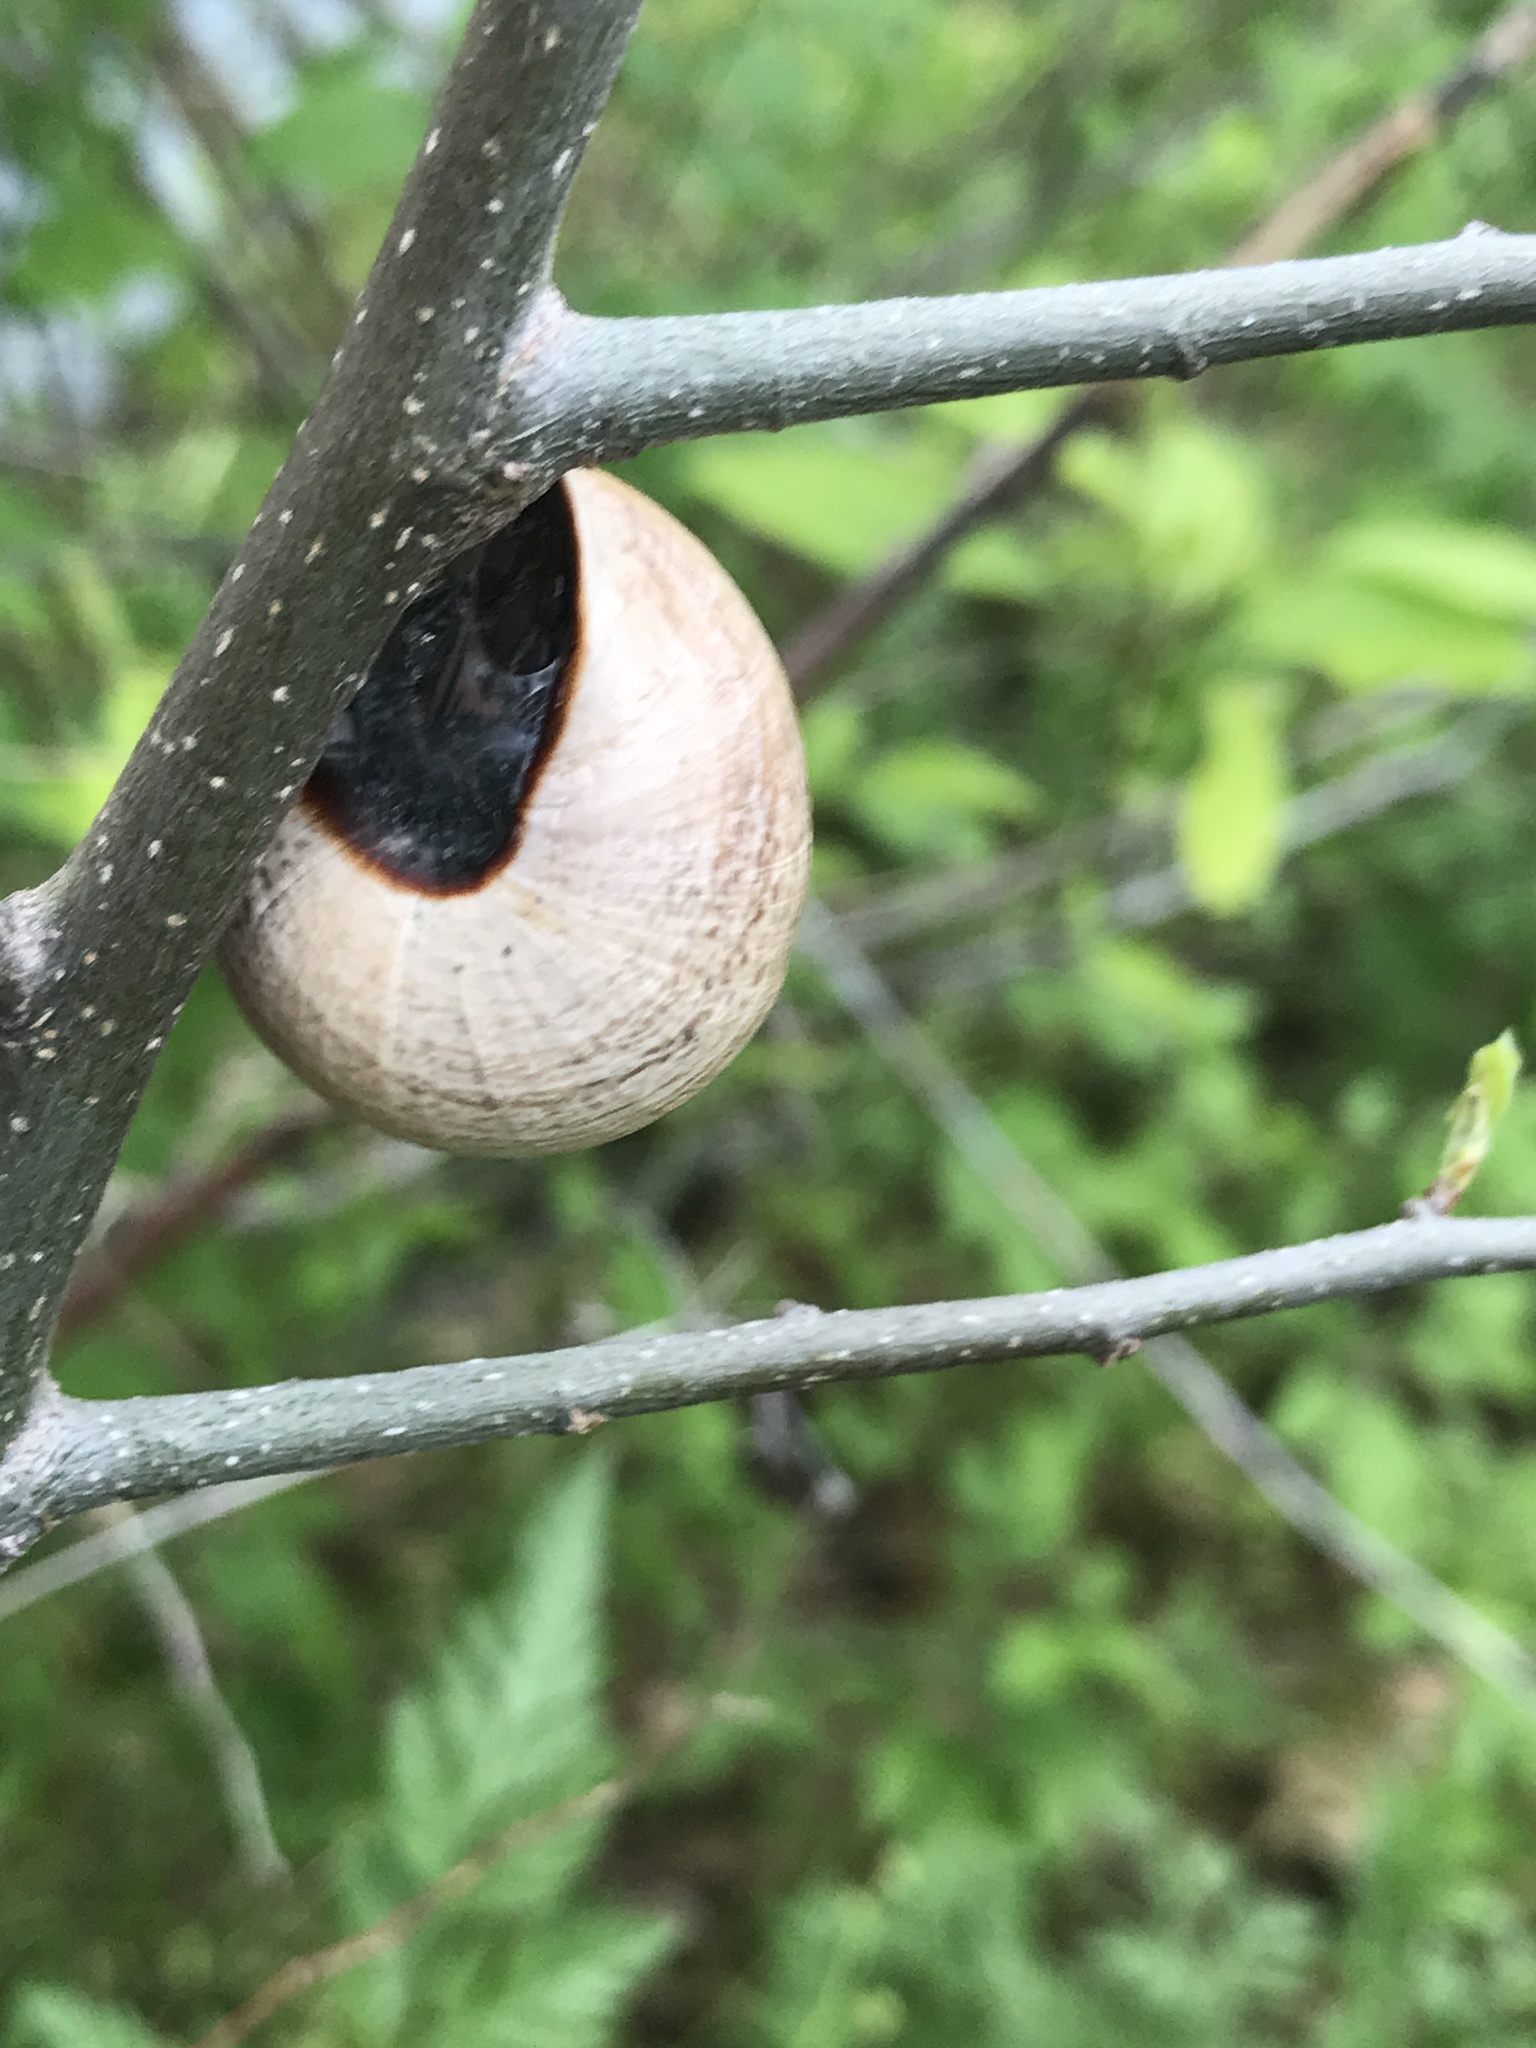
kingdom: Animalia
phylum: Mollusca
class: Gastropoda
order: Stylommatophora
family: Helicidae
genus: Otala
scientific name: Otala lactea
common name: Milk snail
